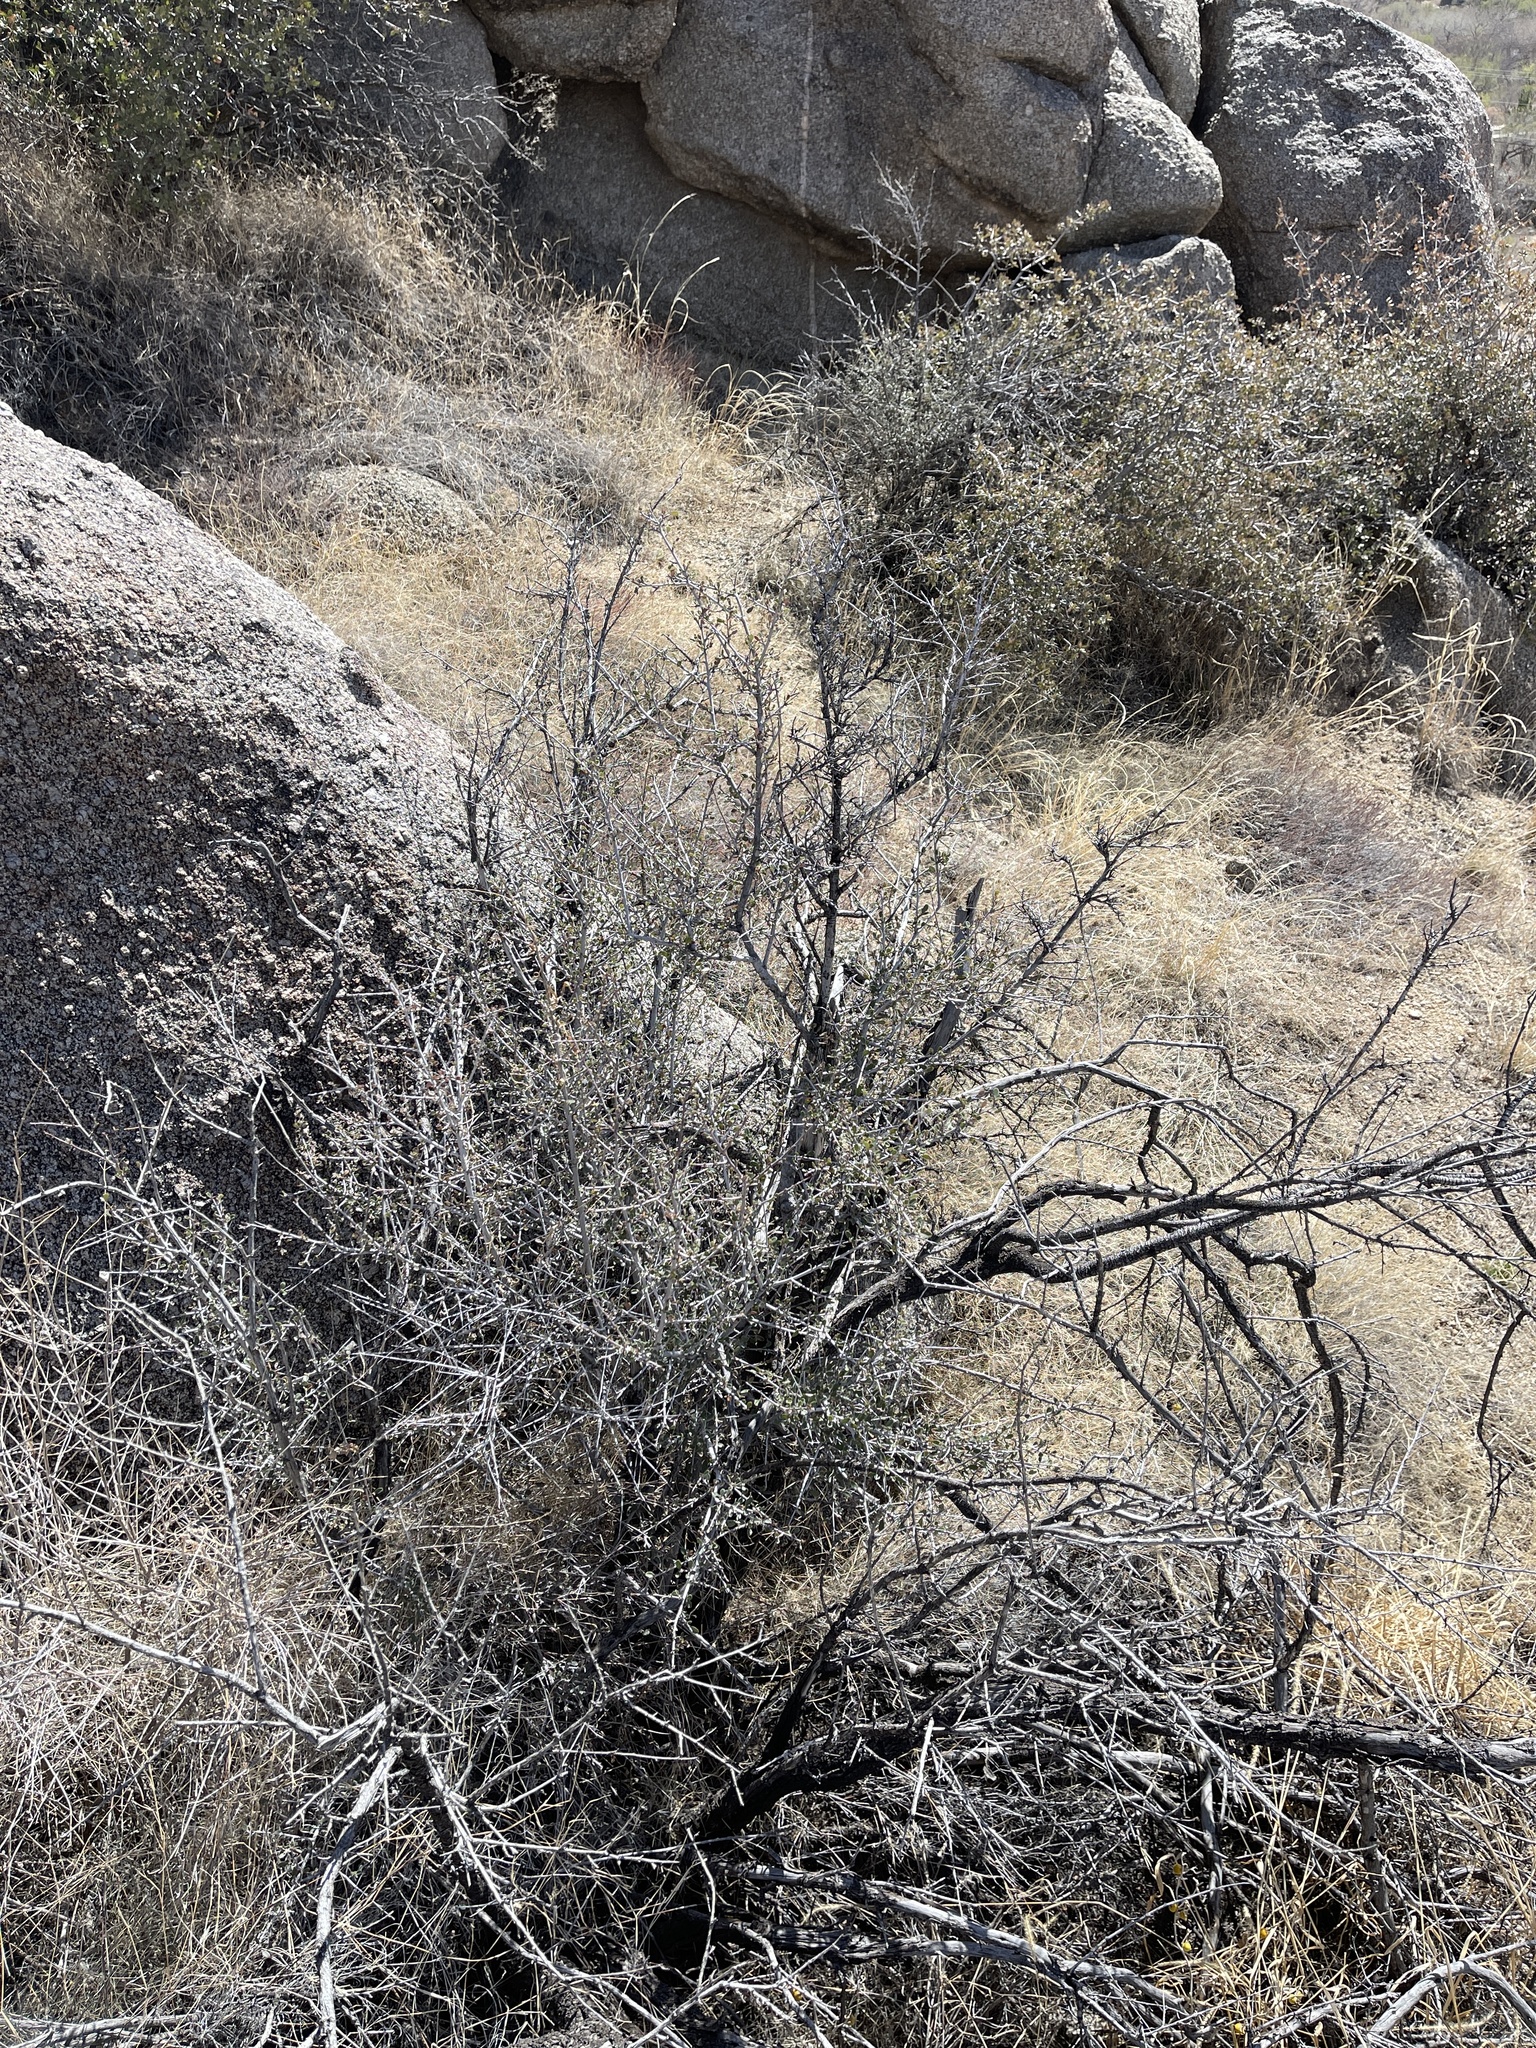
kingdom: Plantae
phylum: Tracheophyta
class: Magnoliopsida
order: Rosales
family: Rosaceae
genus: Cercocarpus
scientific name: Cercocarpus breviflorus
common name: Wright's mountain-mahogany
